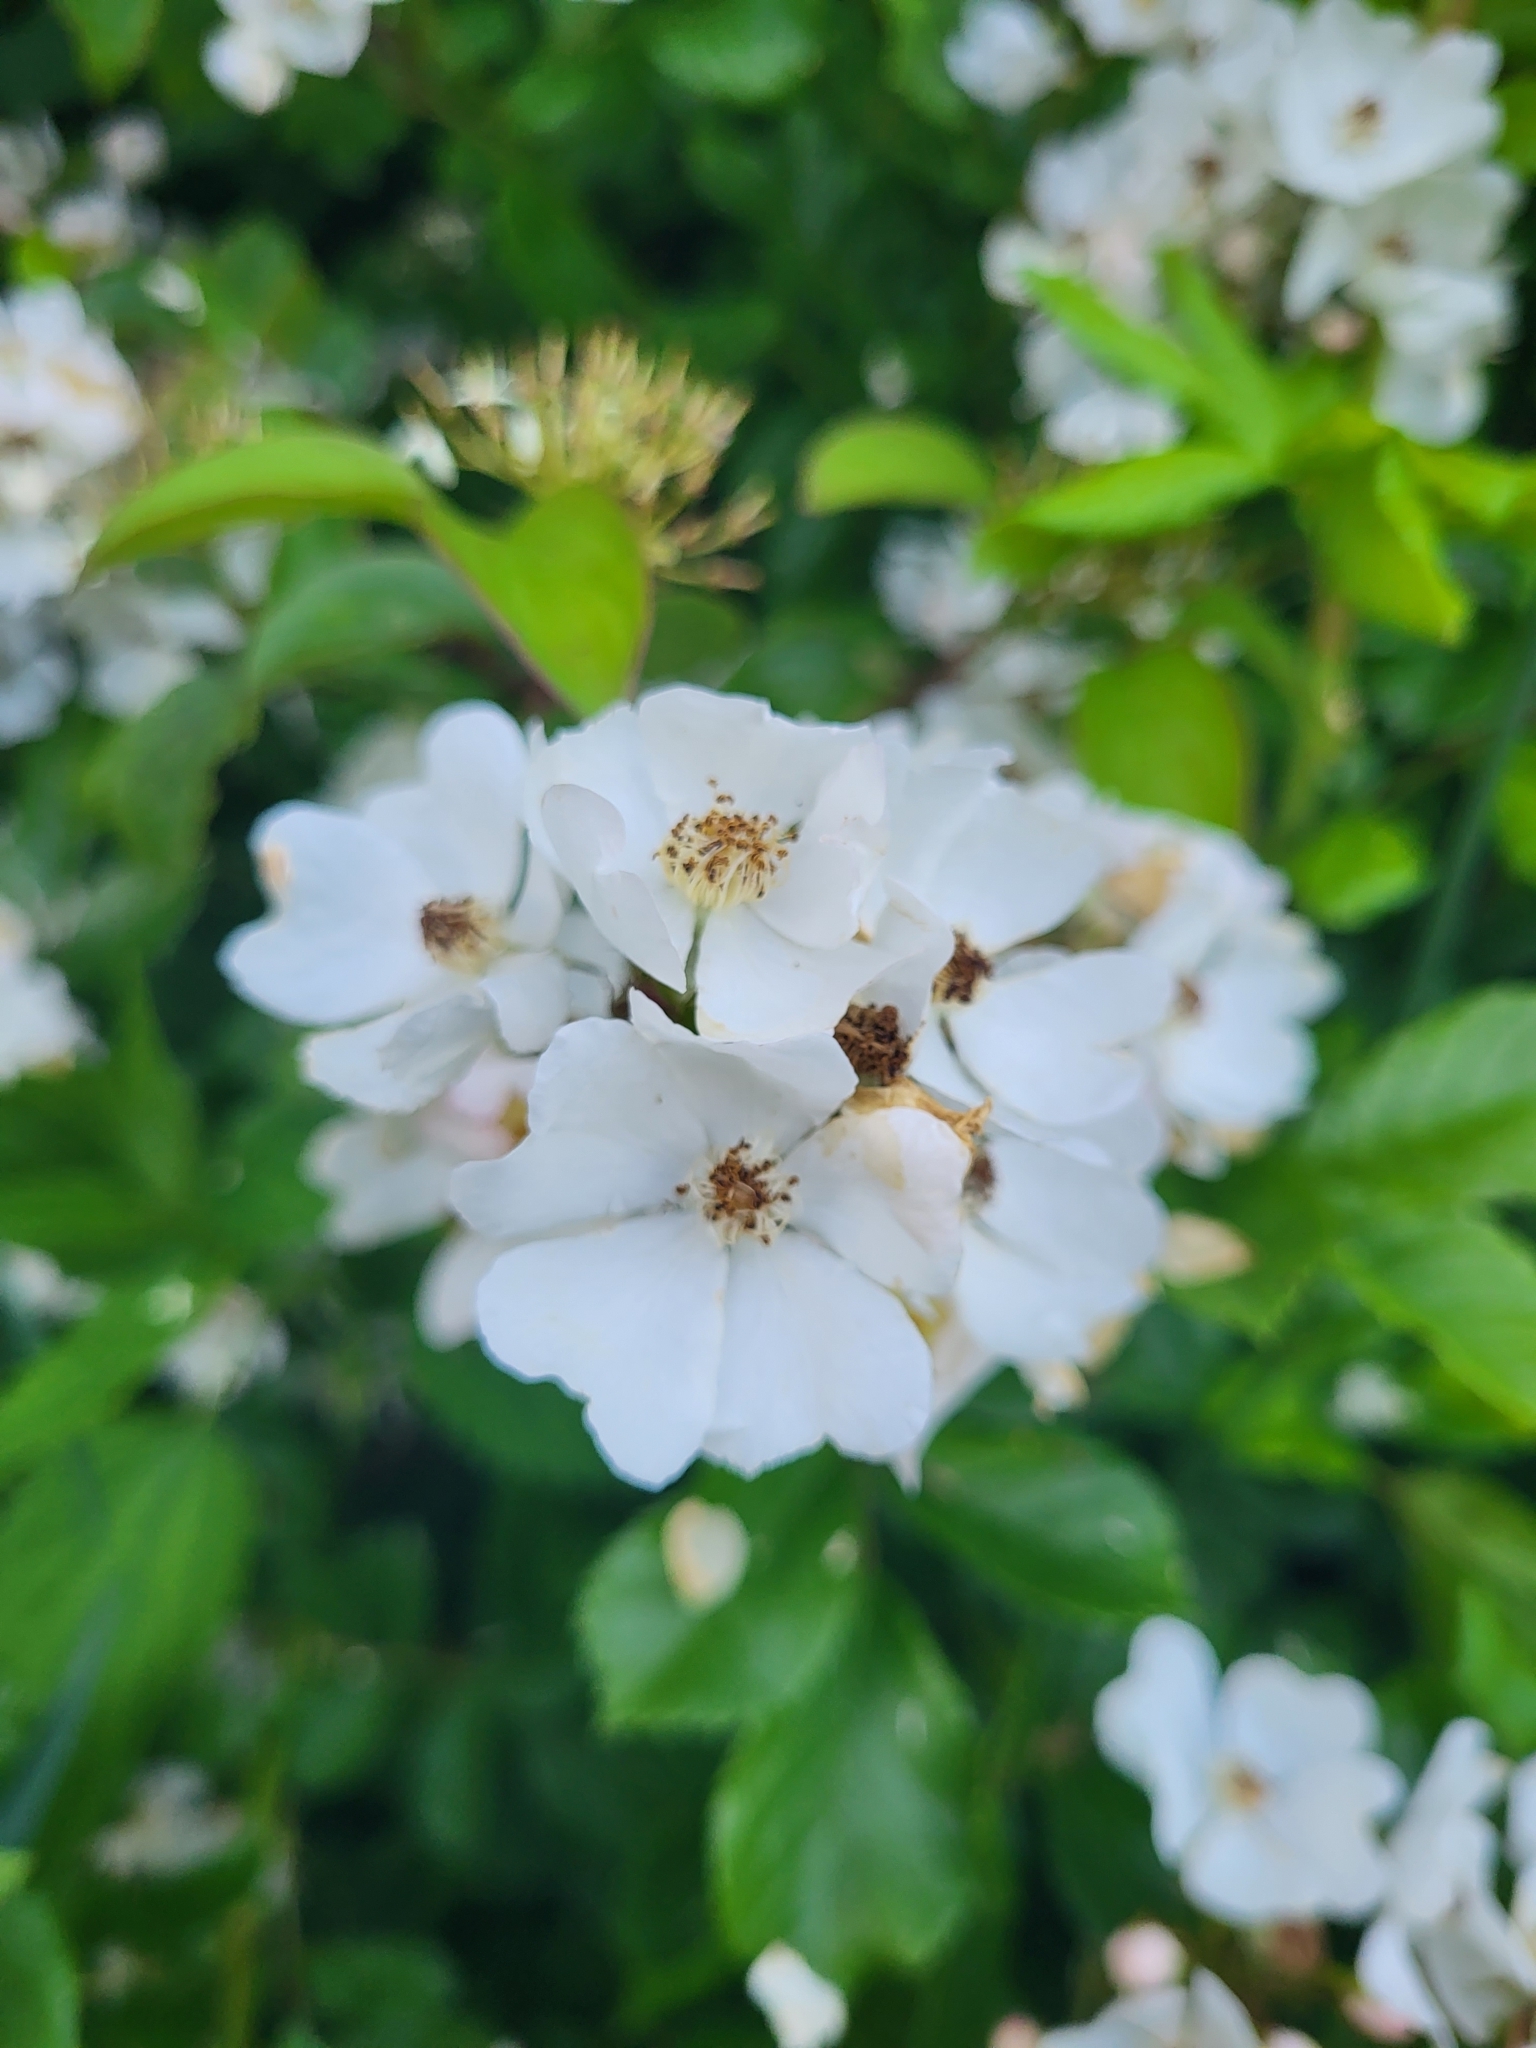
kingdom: Plantae
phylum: Tracheophyta
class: Magnoliopsida
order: Rosales
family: Rosaceae
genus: Rosa
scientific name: Rosa multiflora
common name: Multiflora rose
